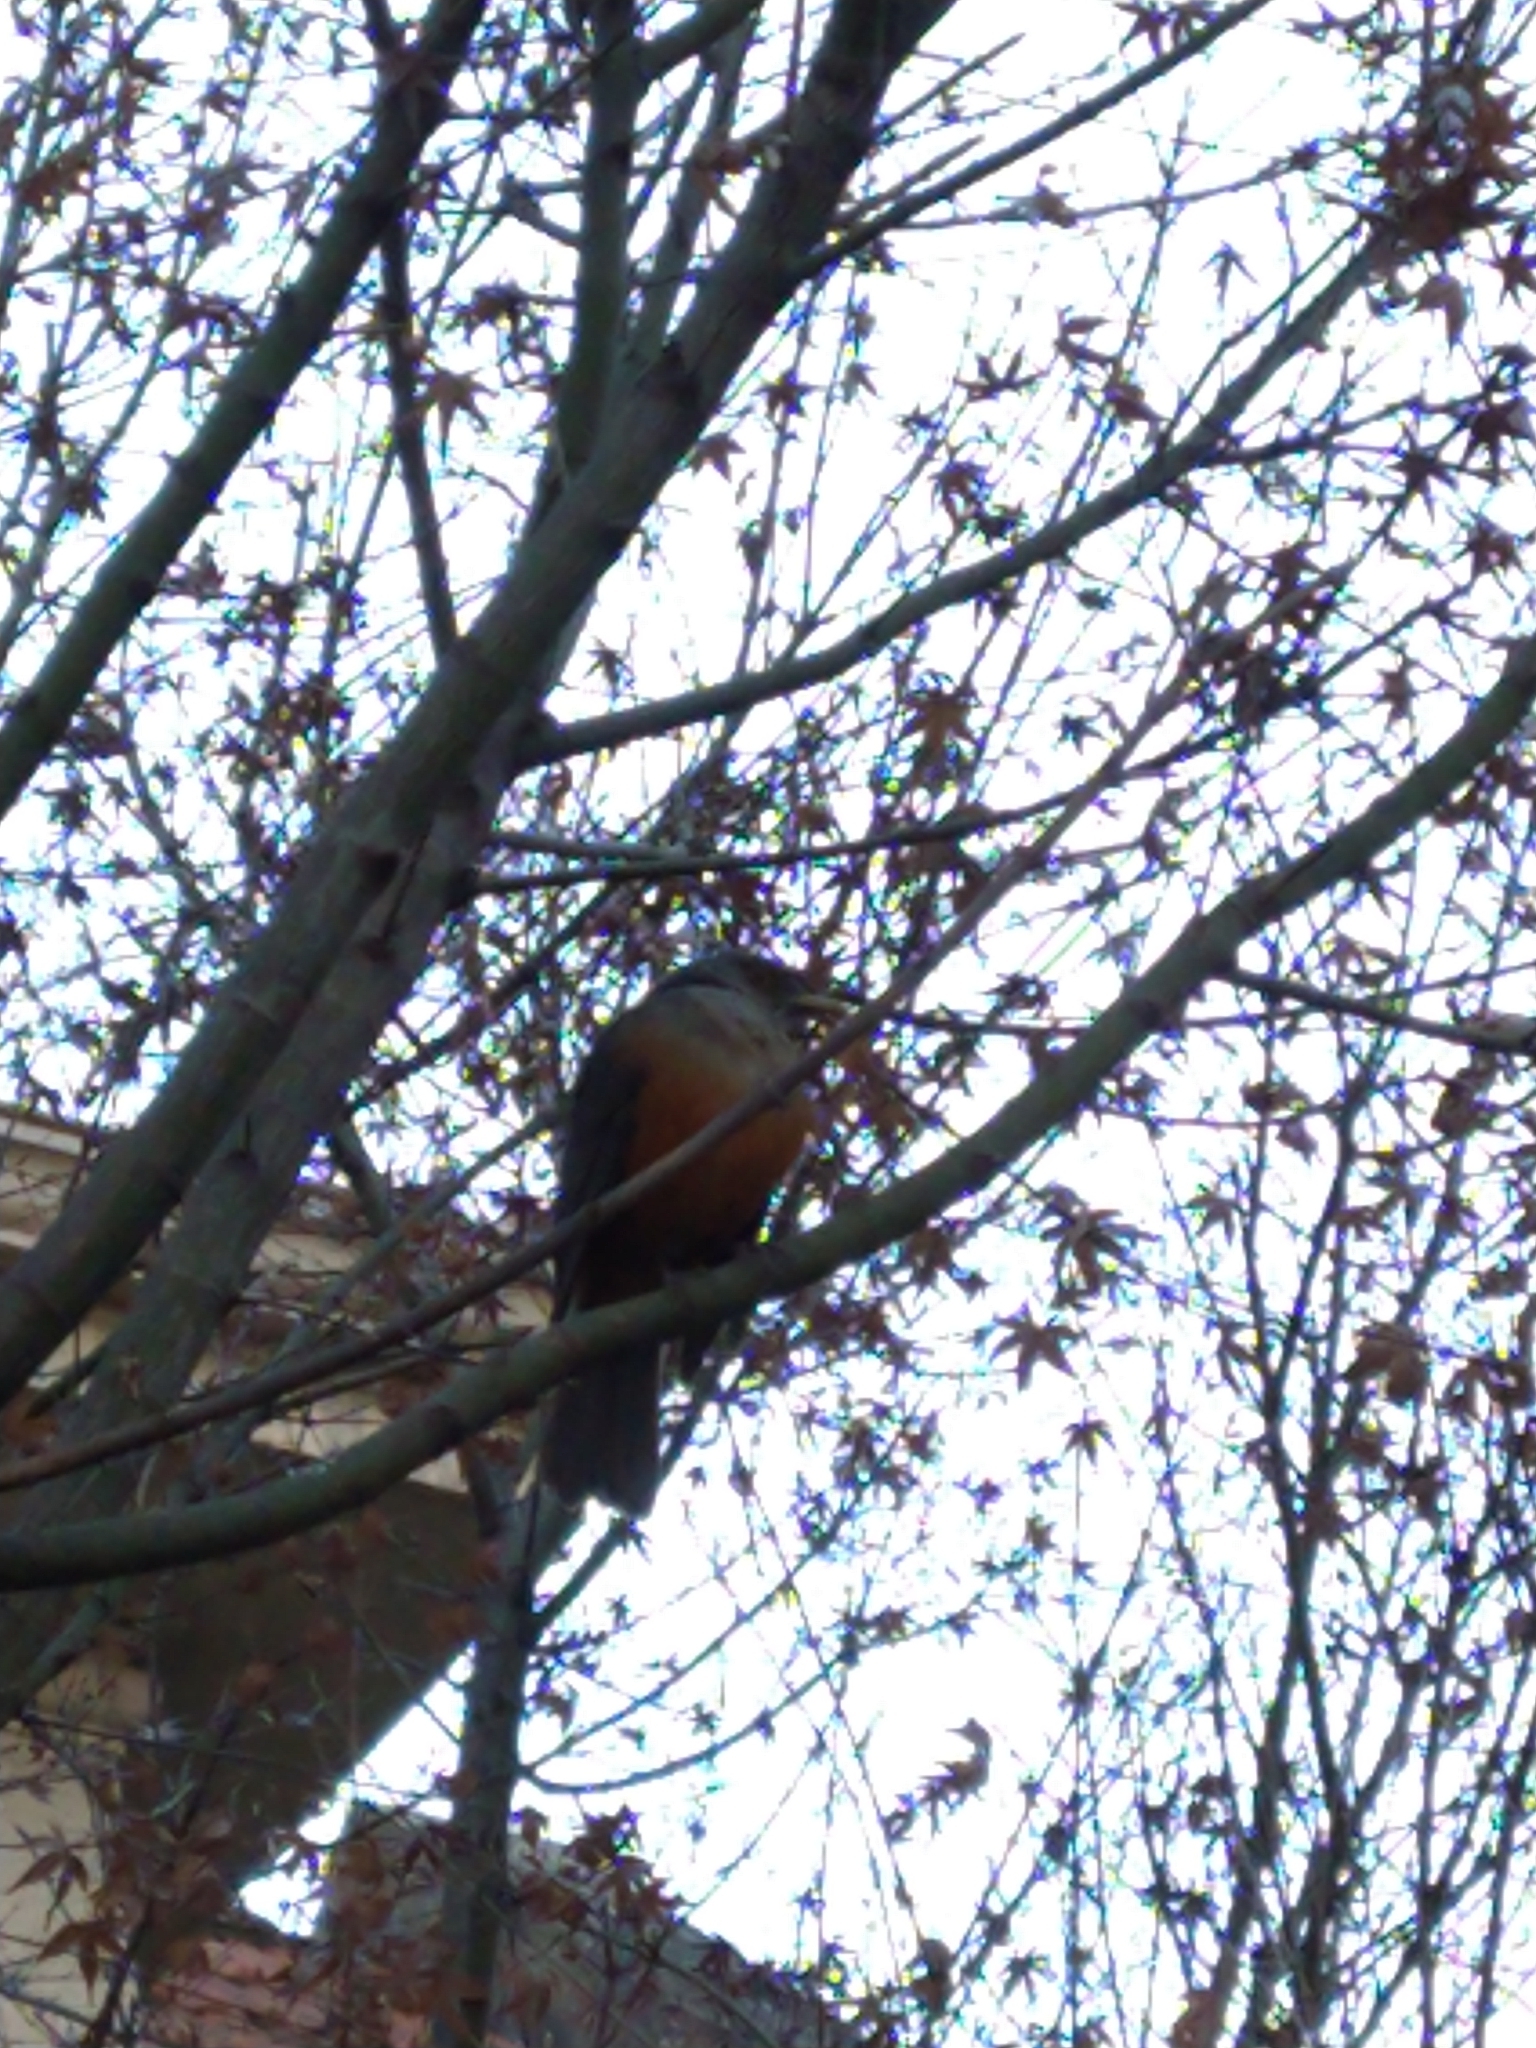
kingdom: Animalia
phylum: Chordata
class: Aves
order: Passeriformes
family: Turdidae
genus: Turdus
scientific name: Turdus rufiventris
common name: Rufous-bellied thrush
